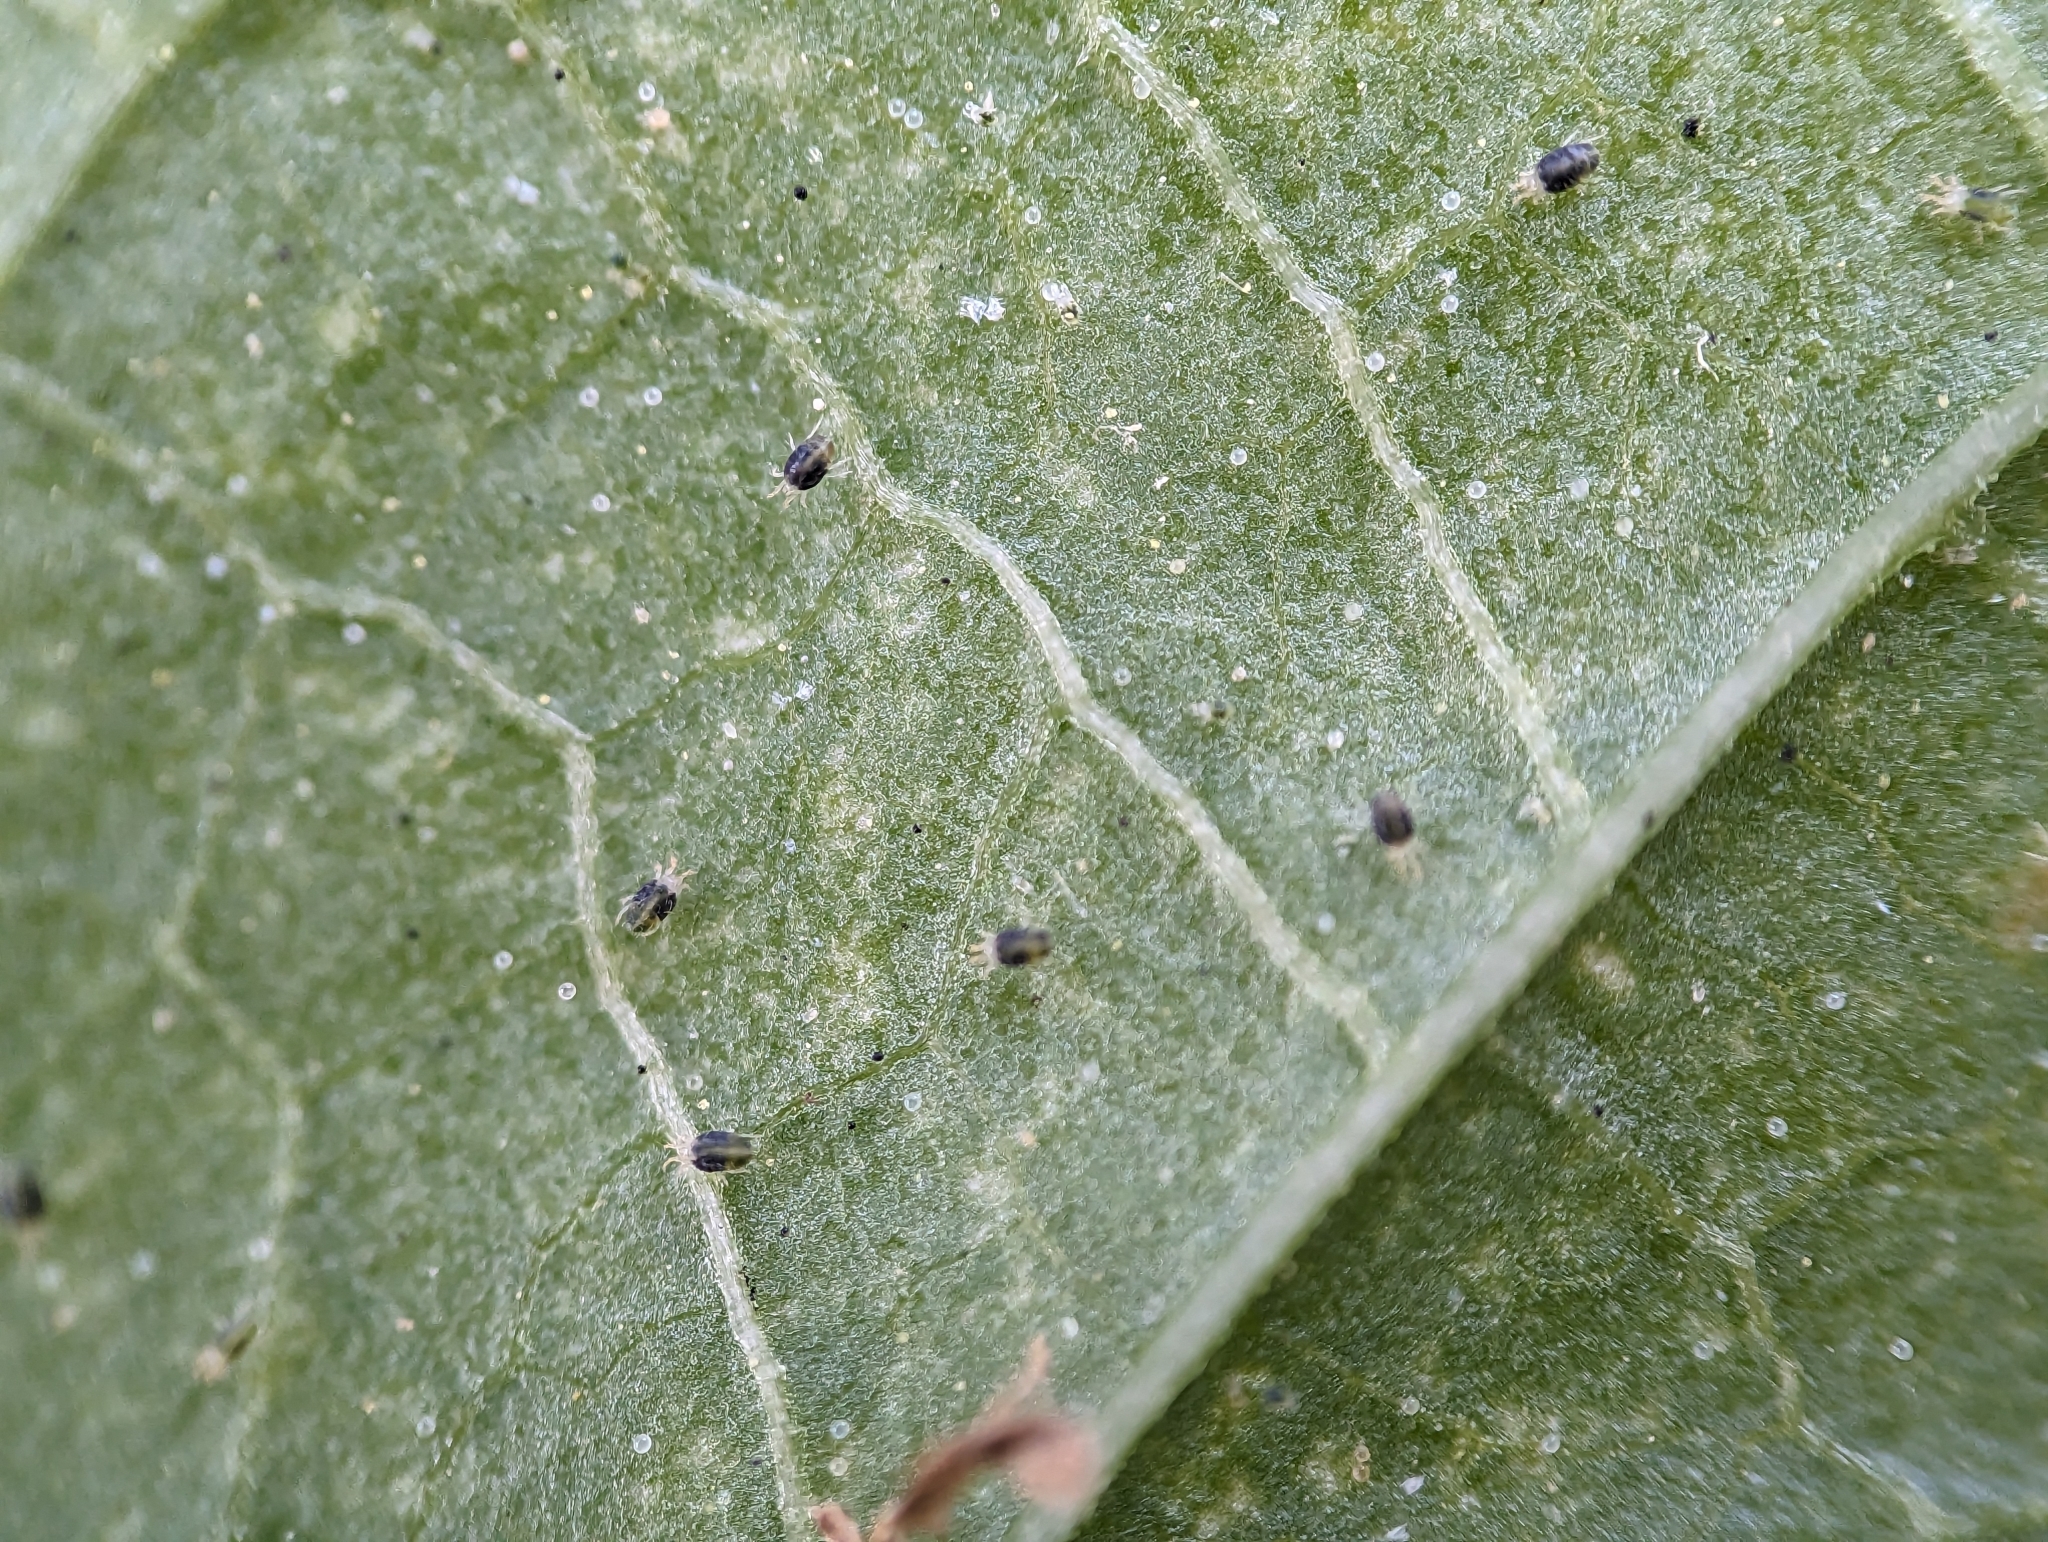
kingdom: Animalia
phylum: Arthropoda
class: Arachnida
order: Trombidiformes
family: Tetranychidae
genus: Tetranychus
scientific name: Tetranychus urticae
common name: Carmine spider mite
